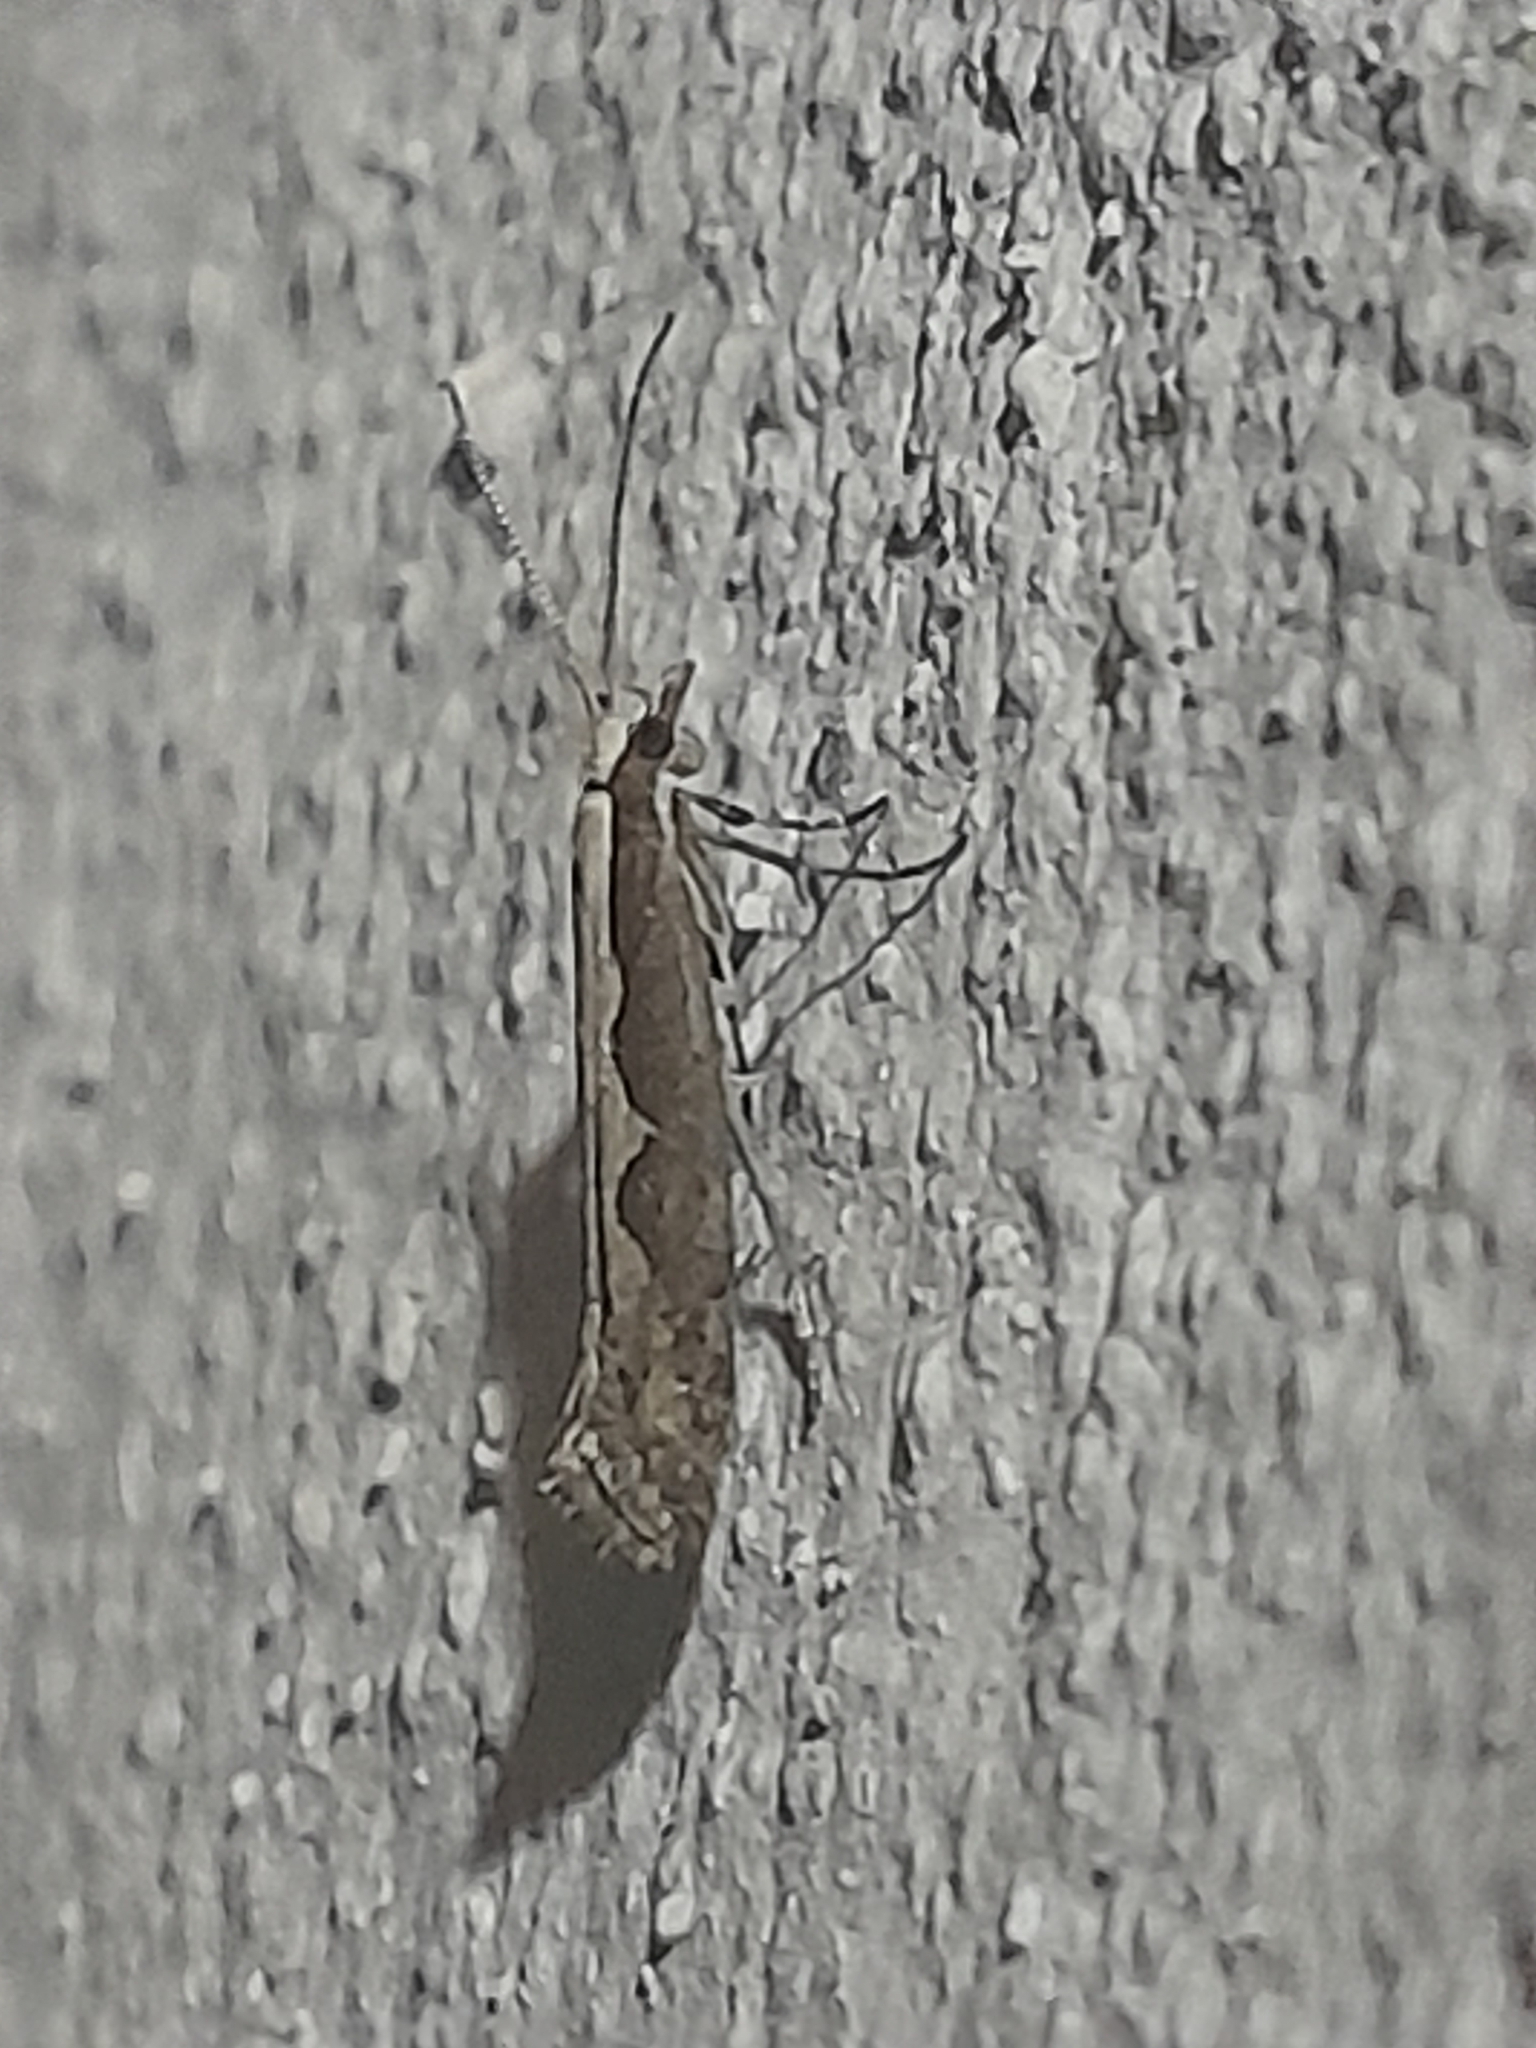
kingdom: Animalia
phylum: Arthropoda
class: Insecta
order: Lepidoptera
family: Plutellidae
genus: Plutella
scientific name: Plutella xylostella
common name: Diamond-back moth
